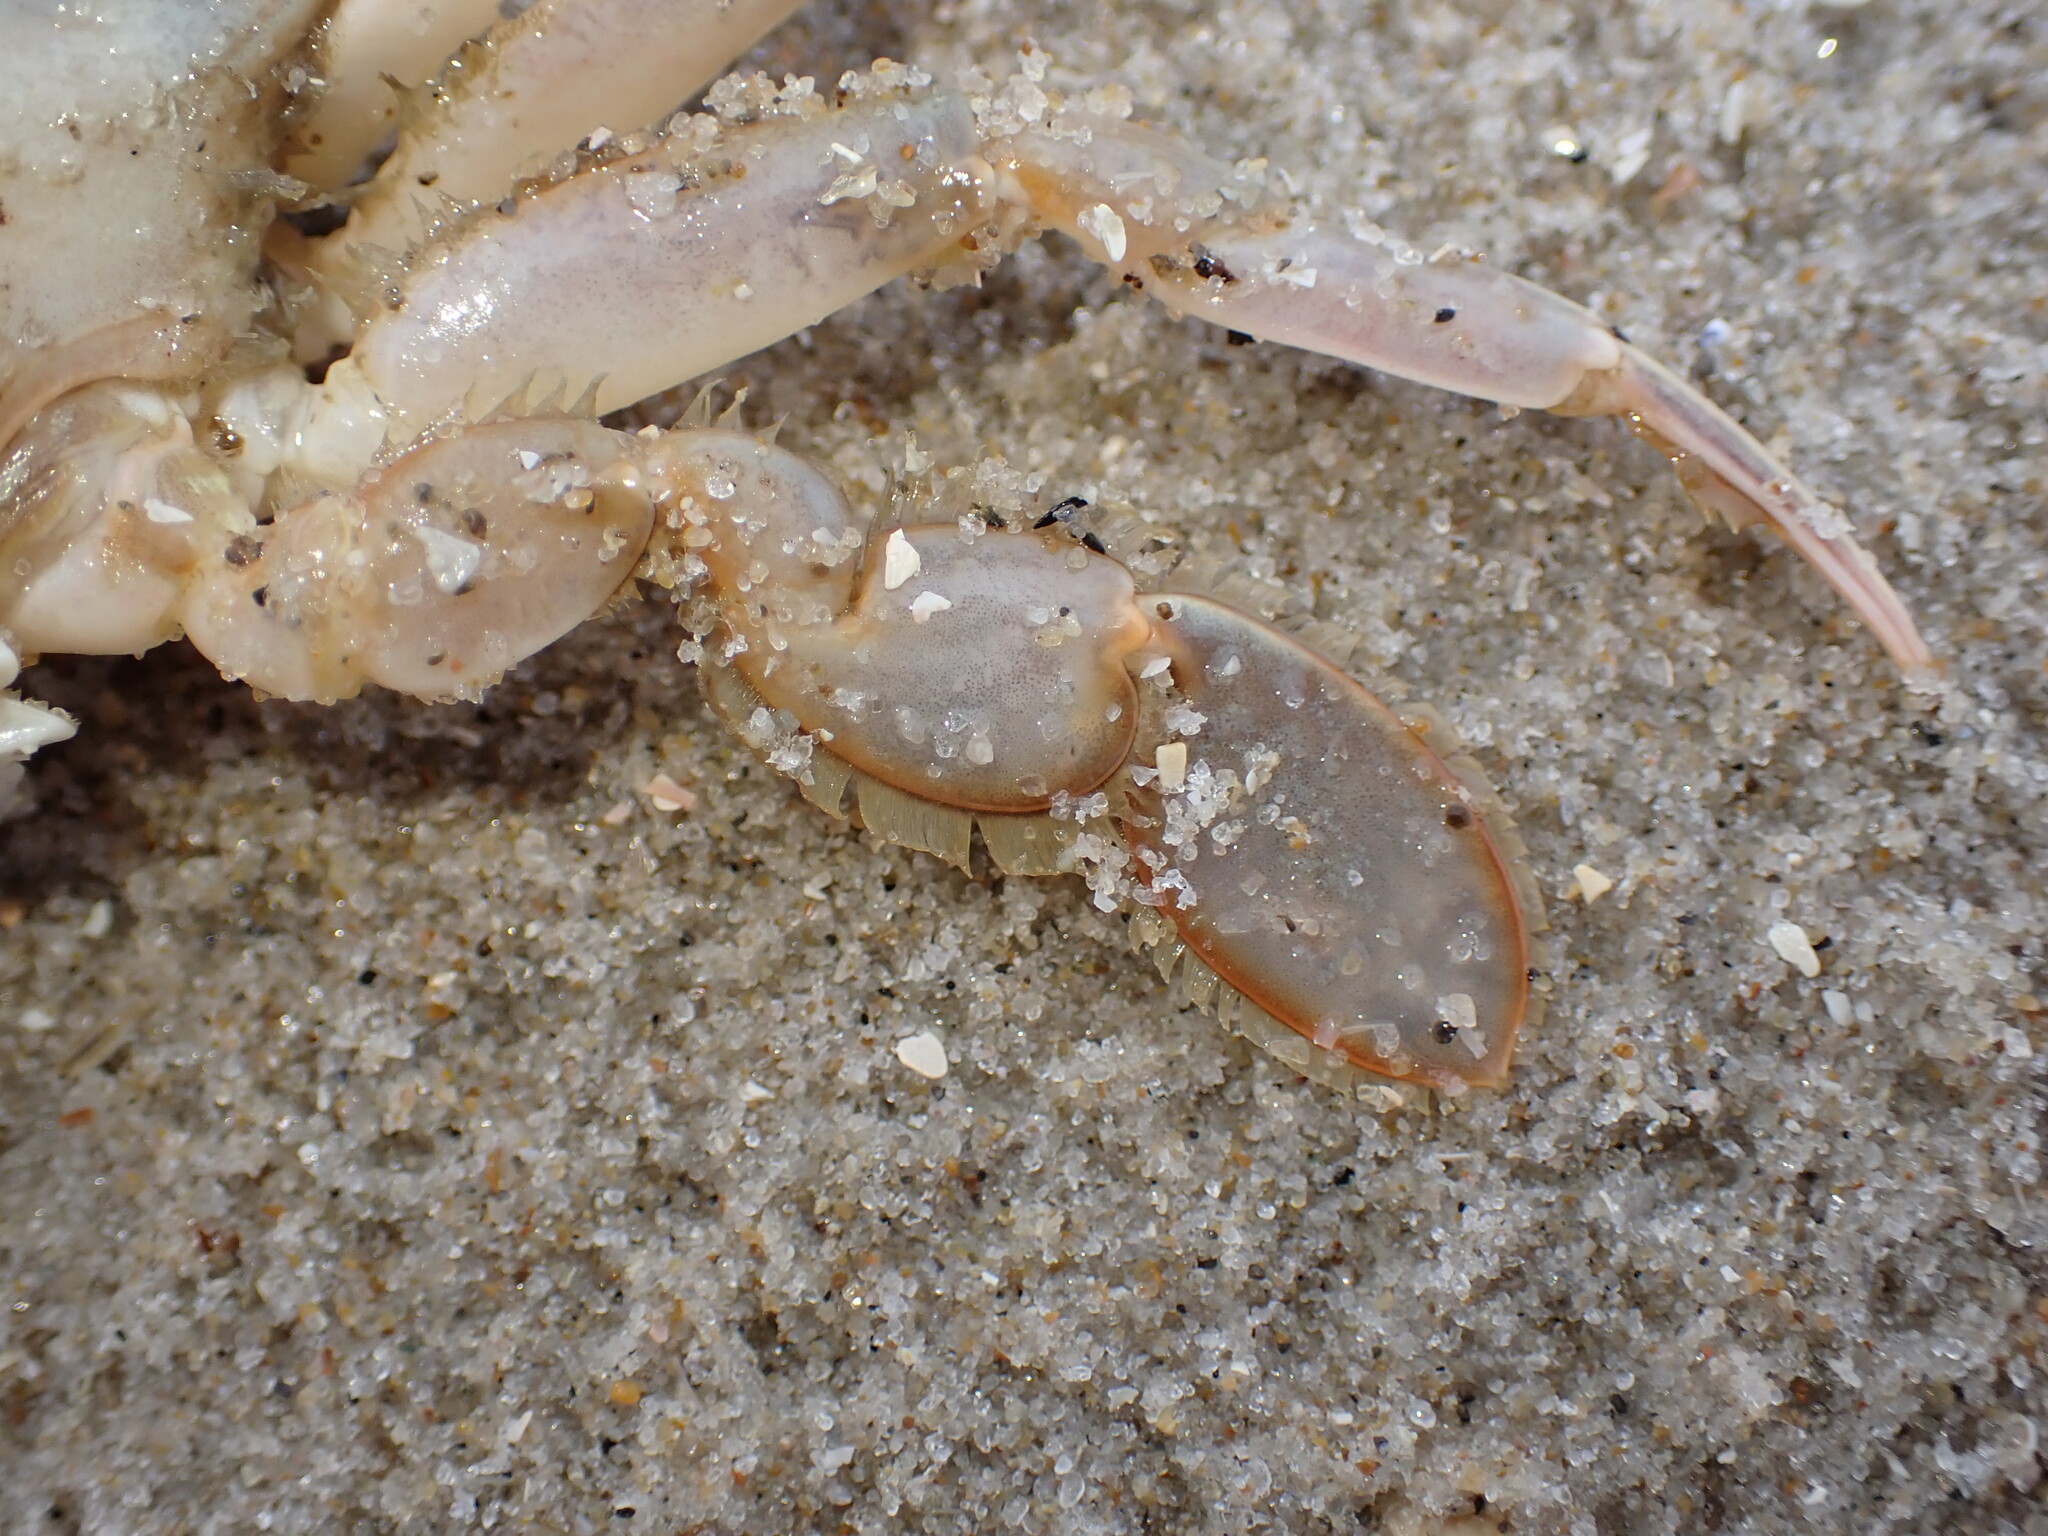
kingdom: Animalia
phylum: Arthropoda
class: Malacostraca
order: Decapoda
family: Polybiidae
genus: Liocarcinus
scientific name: Liocarcinus holsatus
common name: Flying crab
